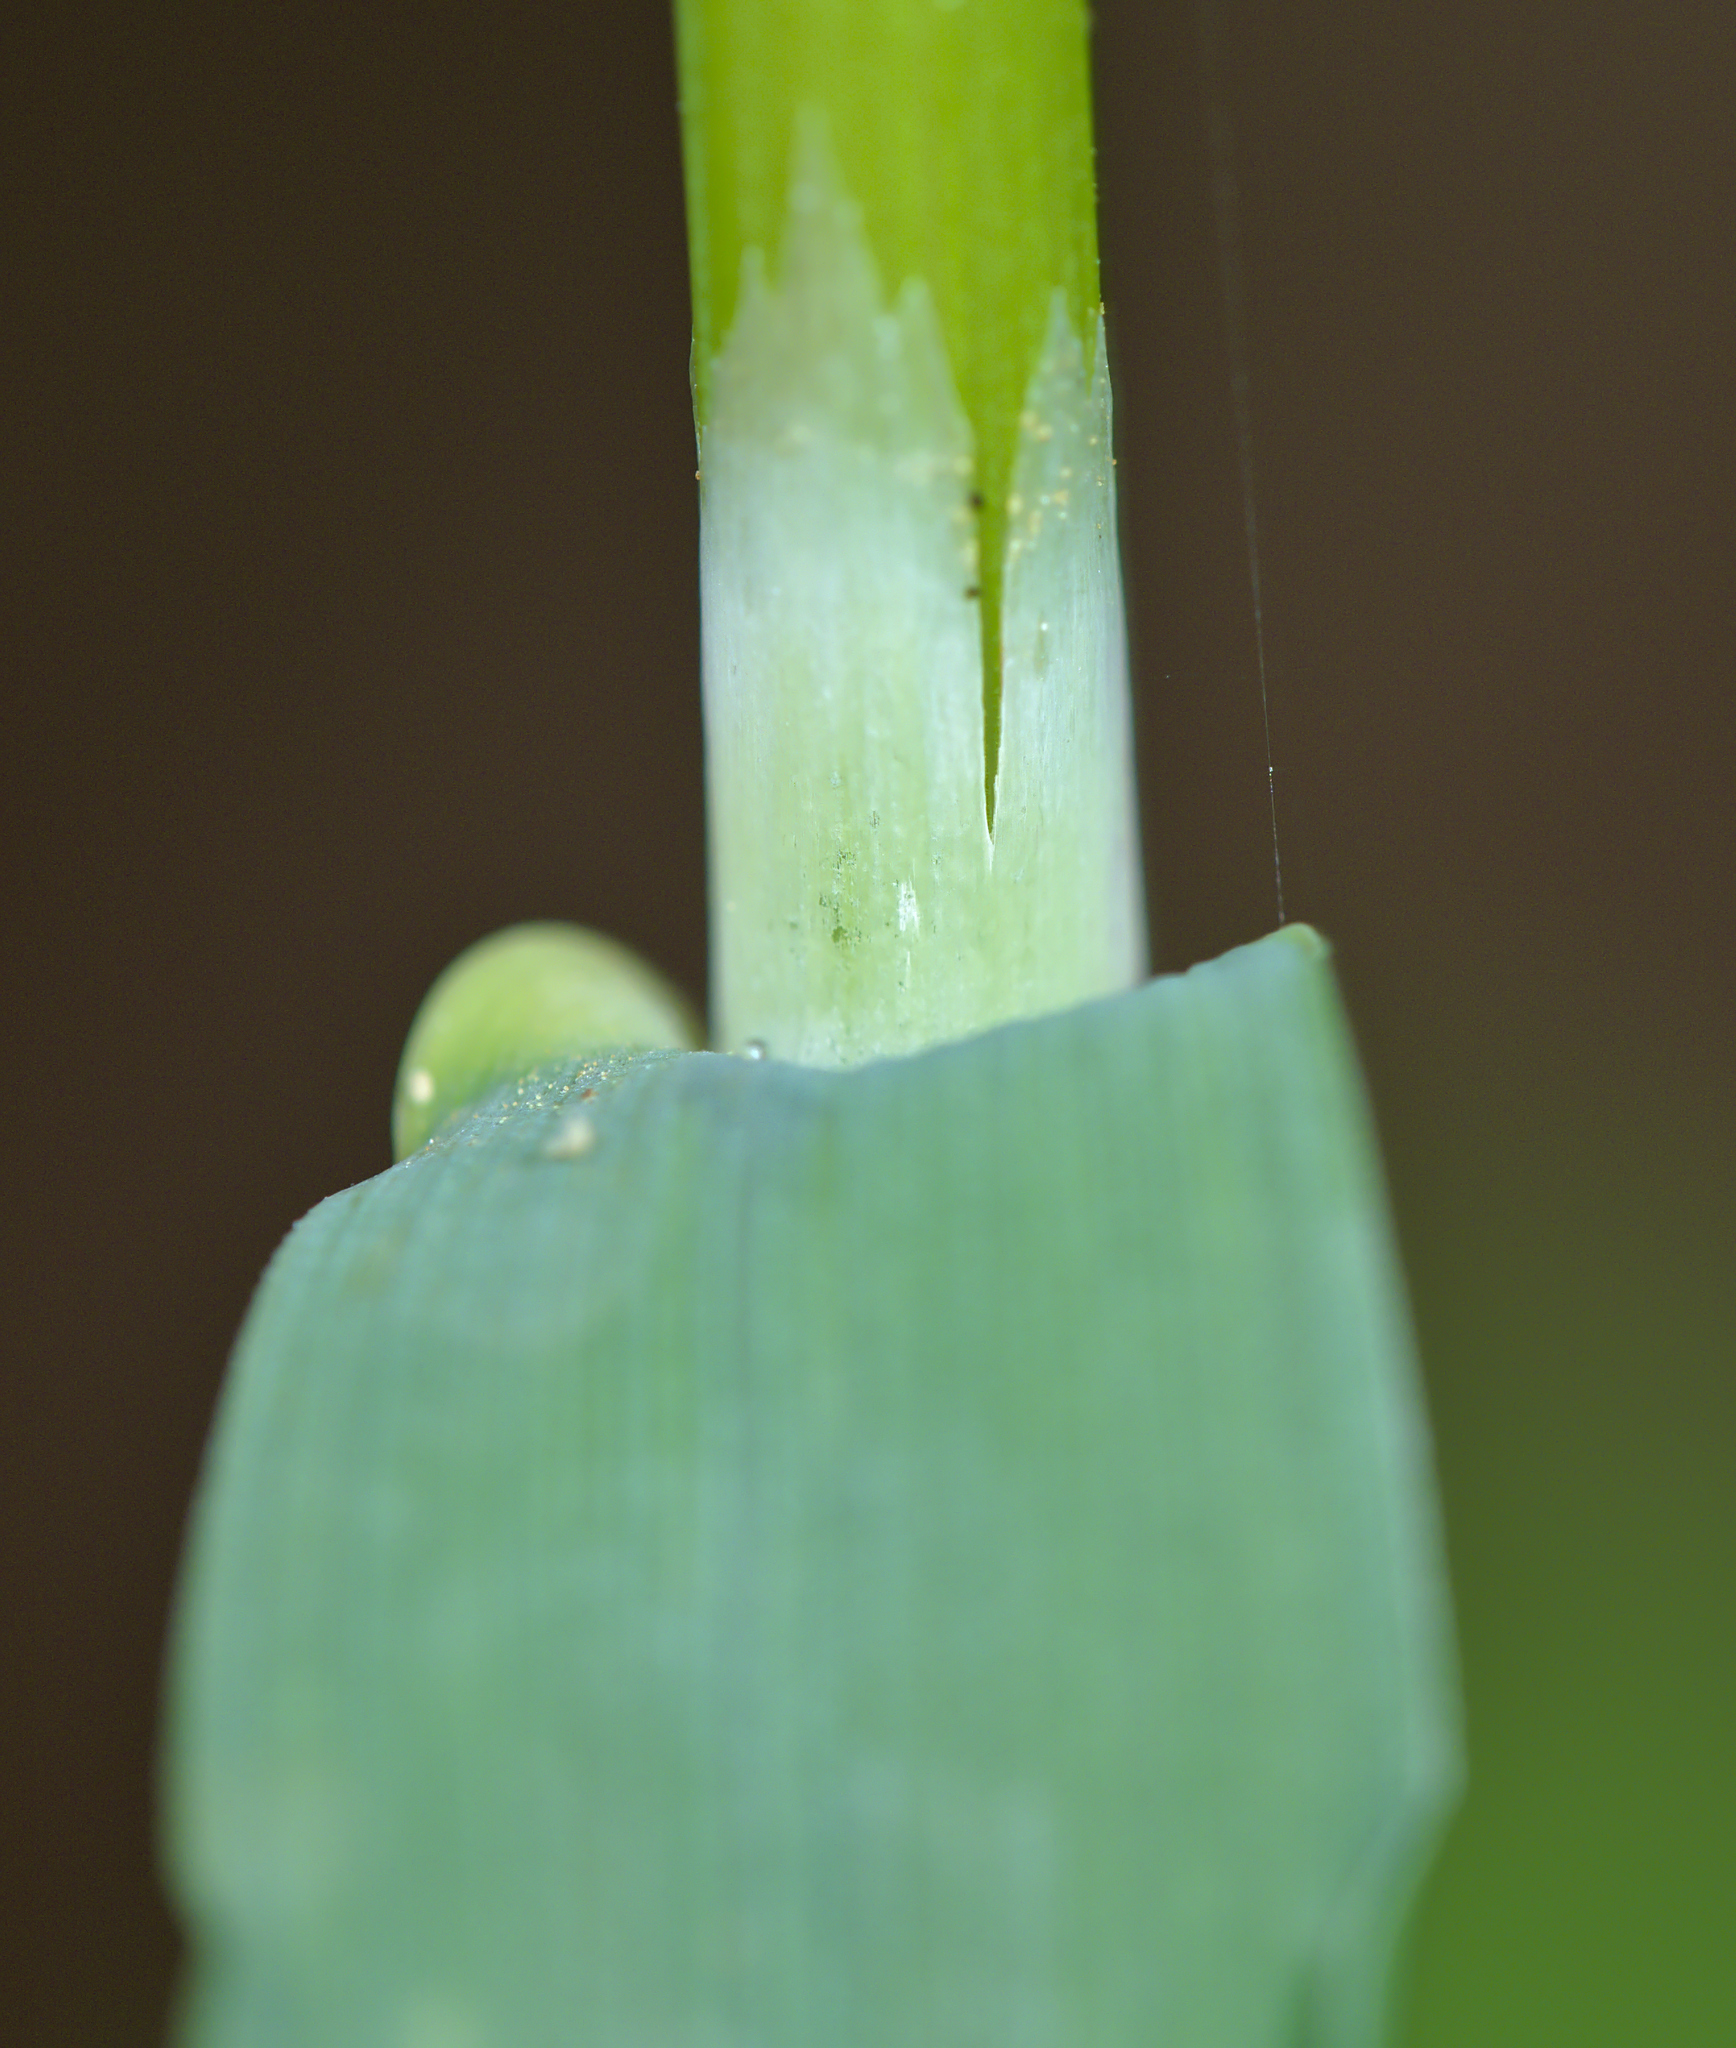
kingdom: Plantae
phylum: Tracheophyta
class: Liliopsida
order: Poales
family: Poaceae
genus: Milium
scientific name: Milium effusum
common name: Wood millet
